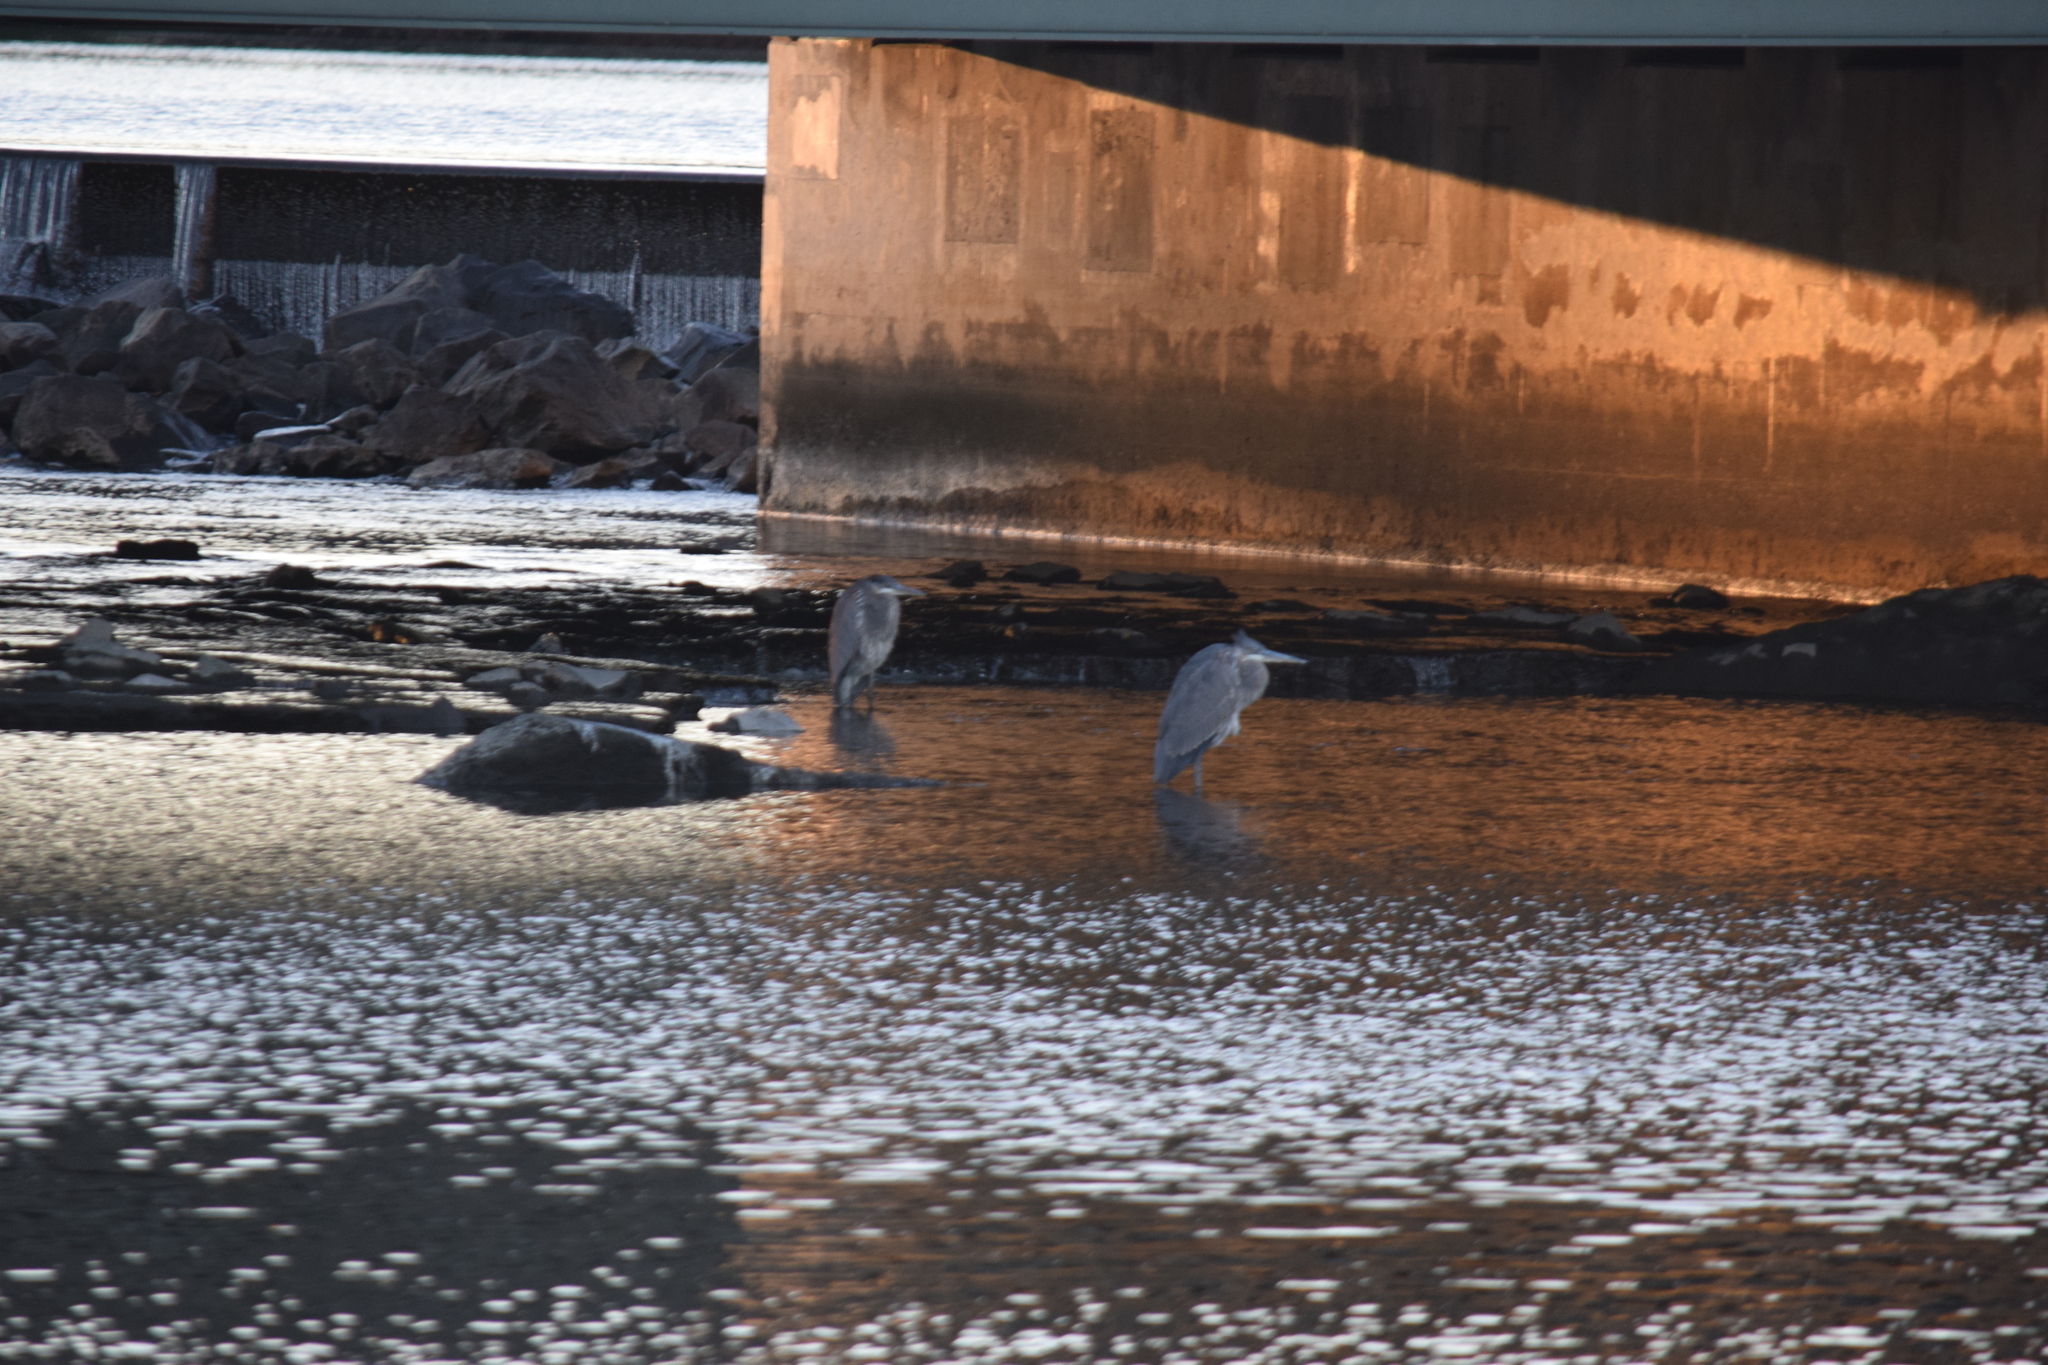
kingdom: Animalia
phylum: Chordata
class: Aves
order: Pelecaniformes
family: Ardeidae
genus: Ardea
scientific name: Ardea herodias
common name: Great blue heron
